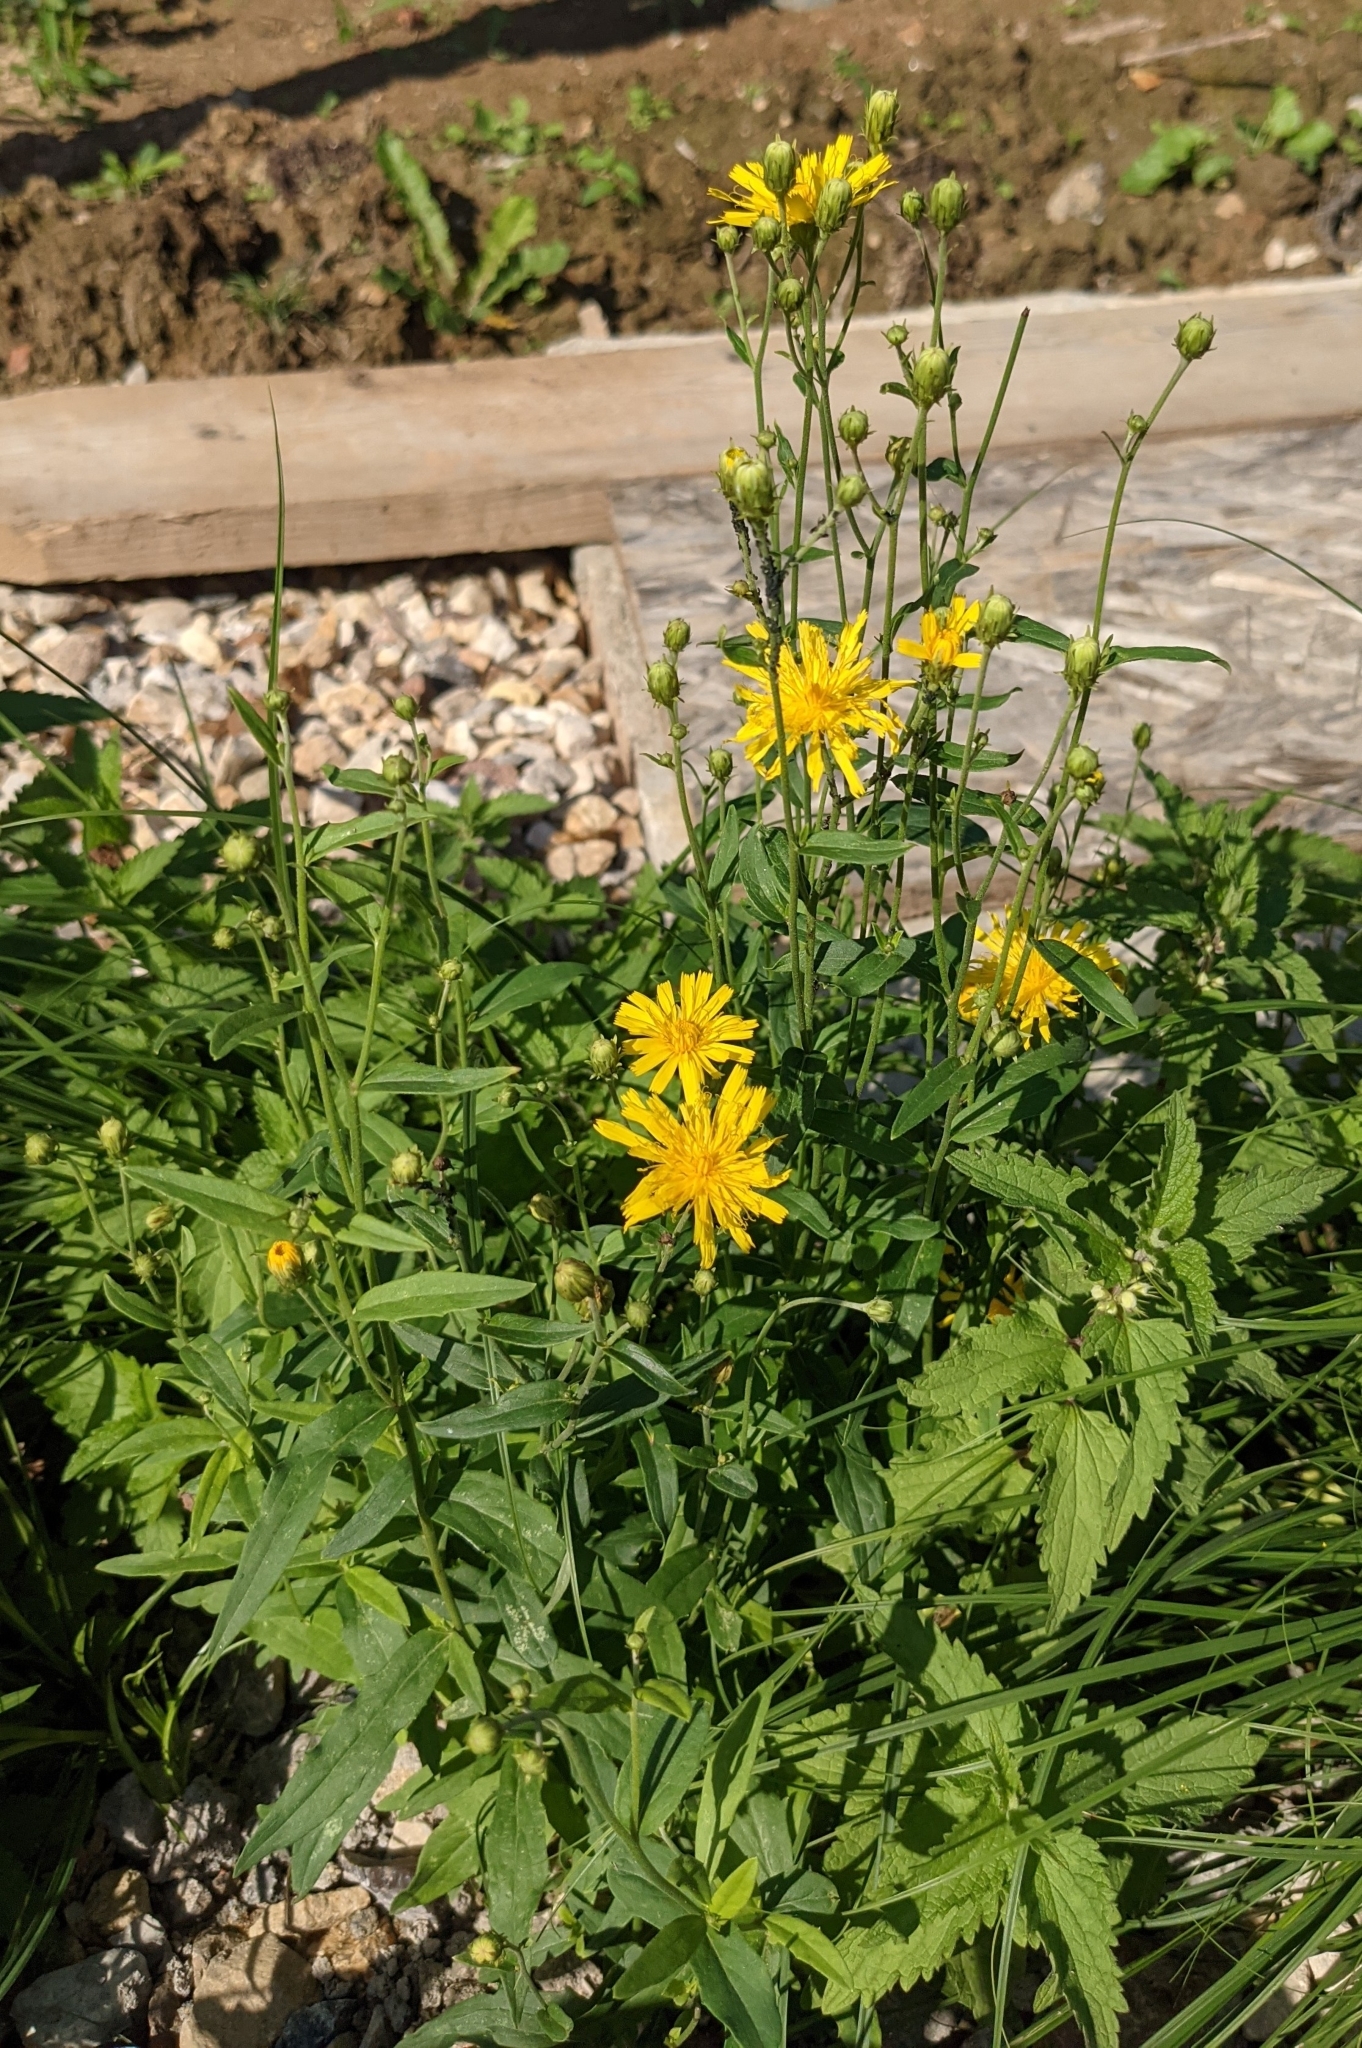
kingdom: Plantae
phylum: Tracheophyta
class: Magnoliopsida
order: Asterales
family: Asteraceae
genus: Hieracium
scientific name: Hieracium umbellatum
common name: Northern hawkweed
